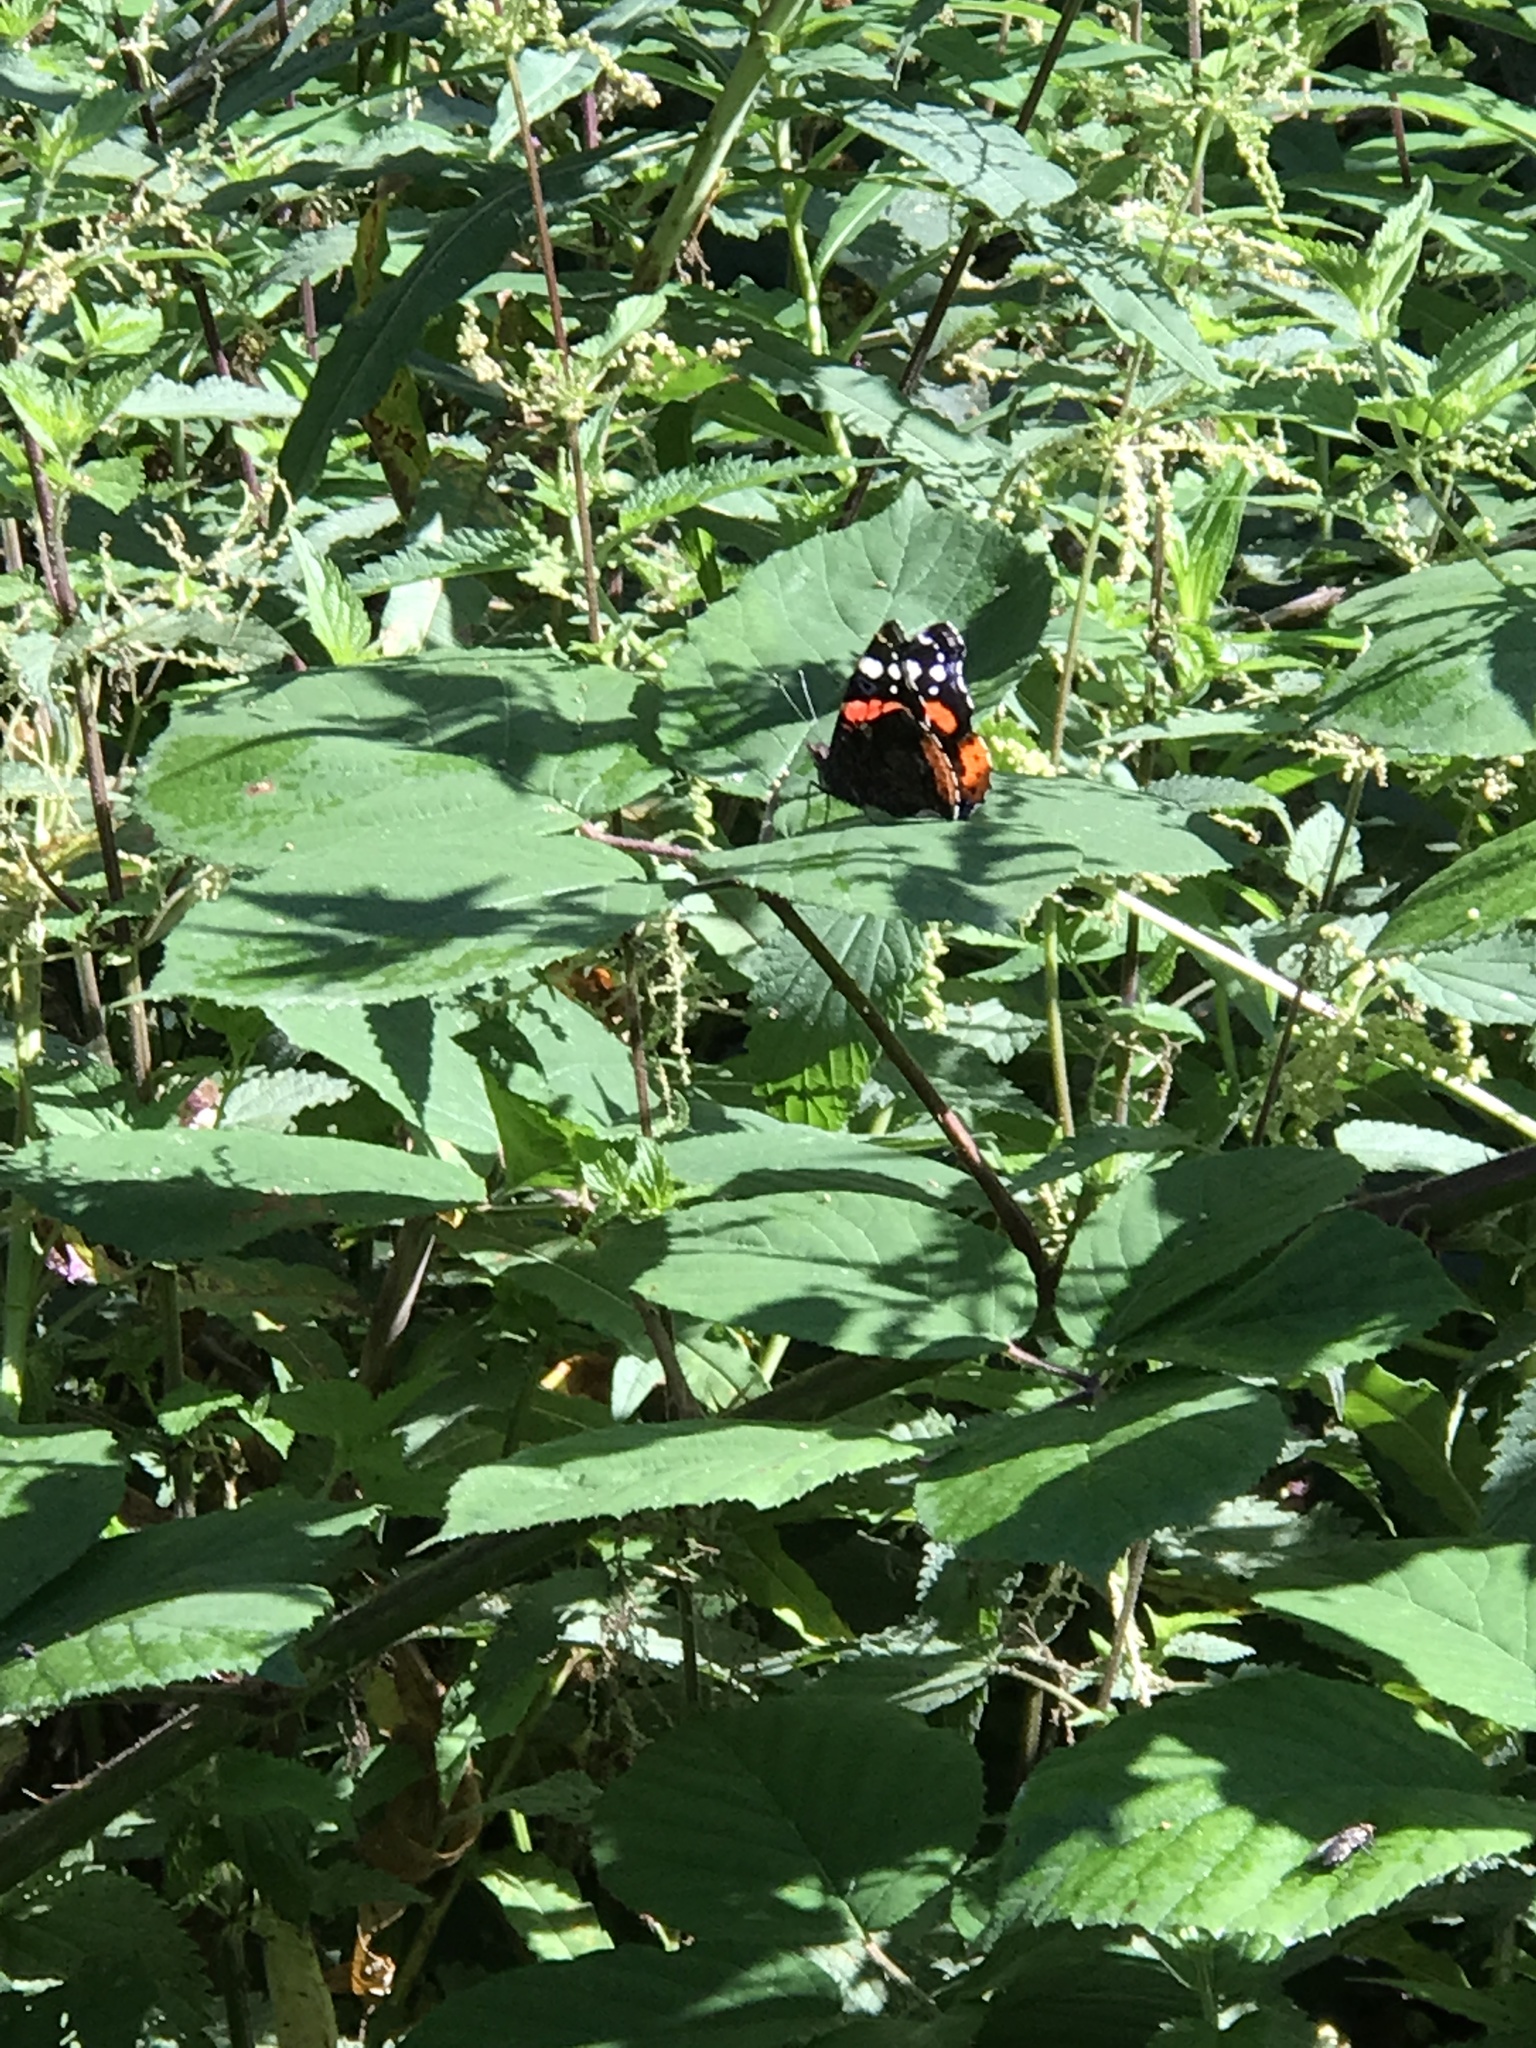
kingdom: Animalia
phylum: Arthropoda
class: Insecta
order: Lepidoptera
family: Nymphalidae
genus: Vanessa
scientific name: Vanessa atalanta
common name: Red admiral
